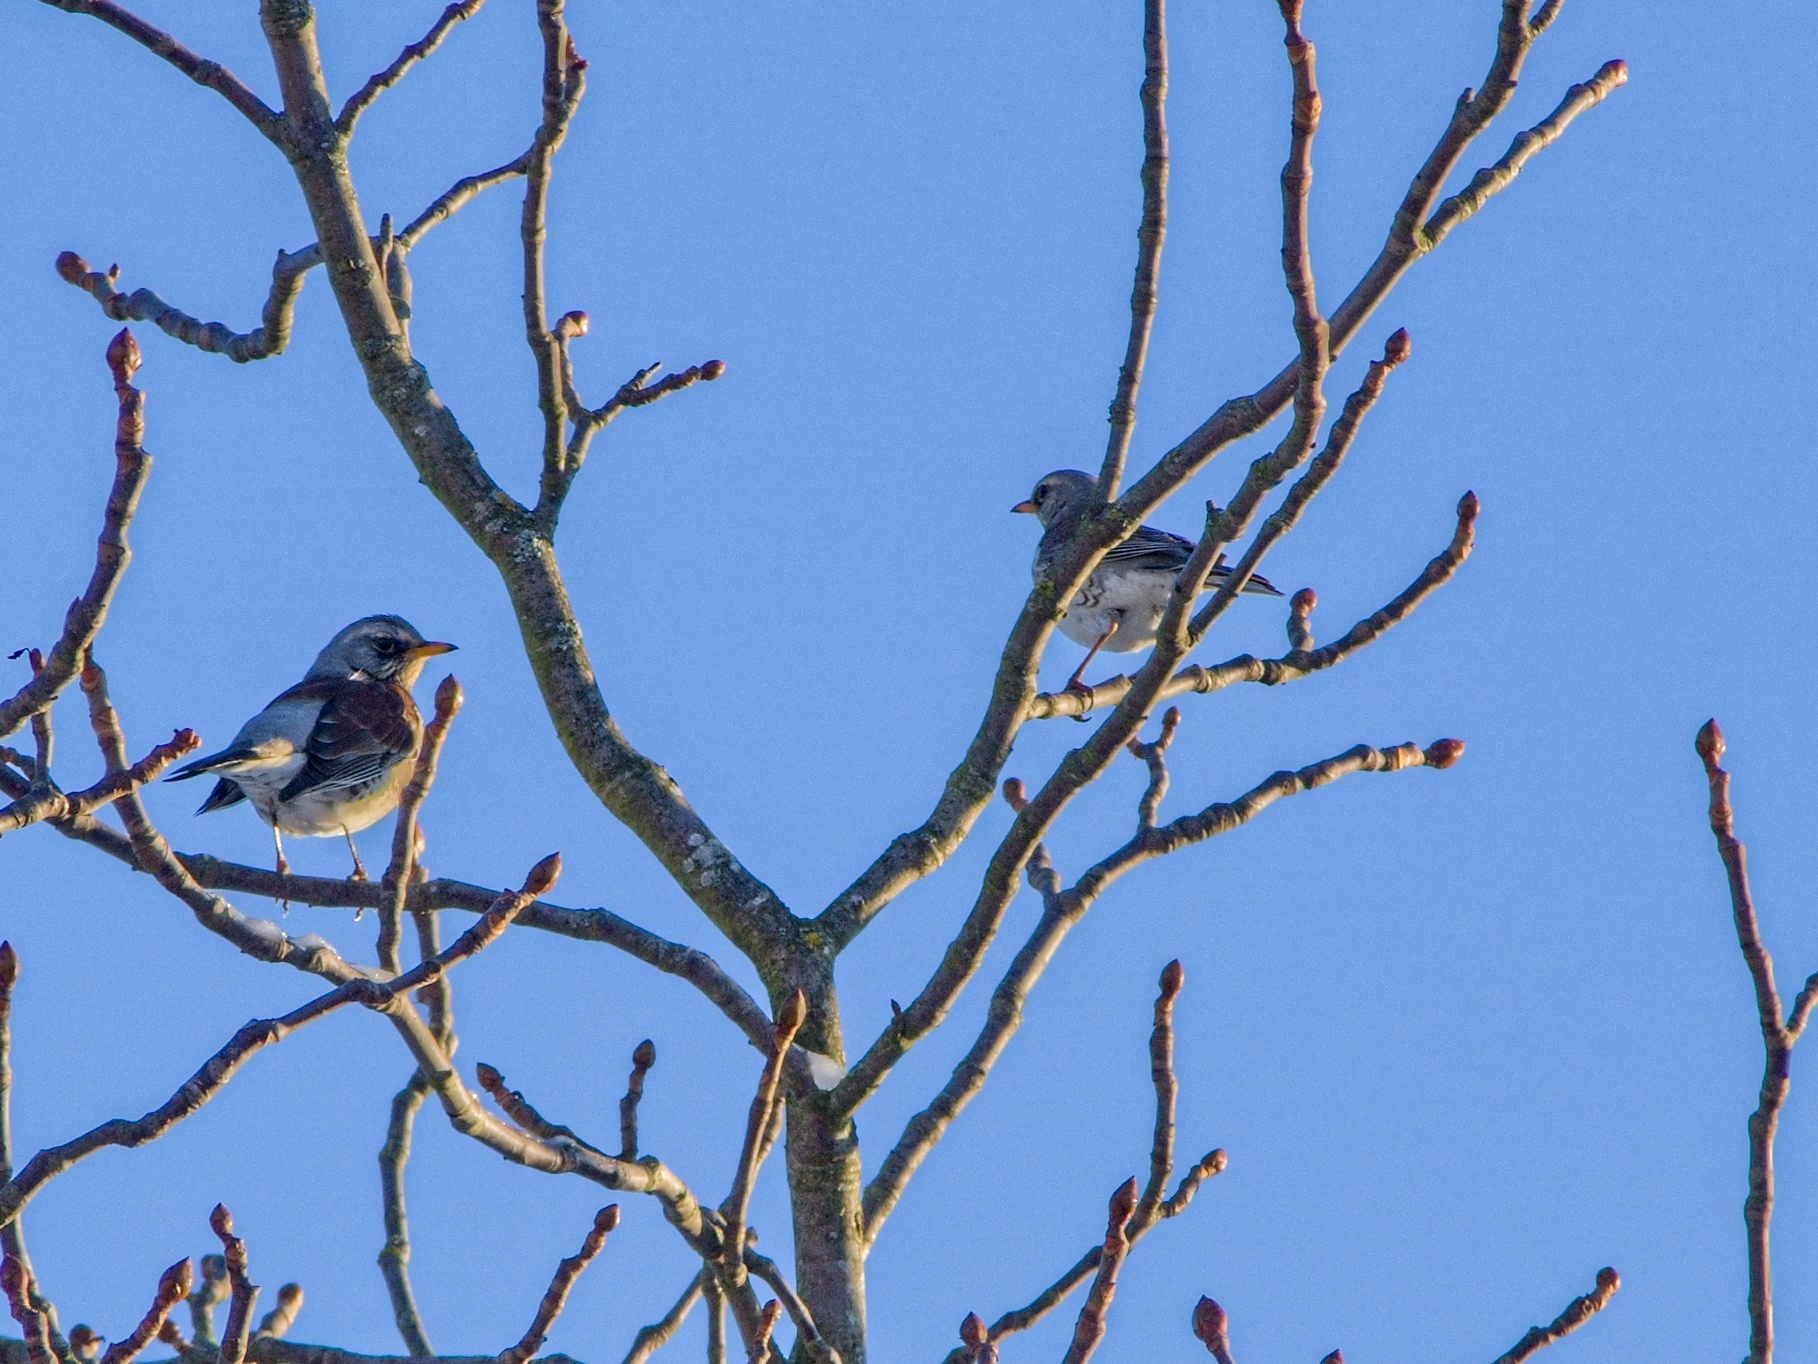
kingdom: Animalia
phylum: Chordata
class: Aves
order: Passeriformes
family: Turdidae
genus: Turdus
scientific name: Turdus pilaris
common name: Fieldfare
